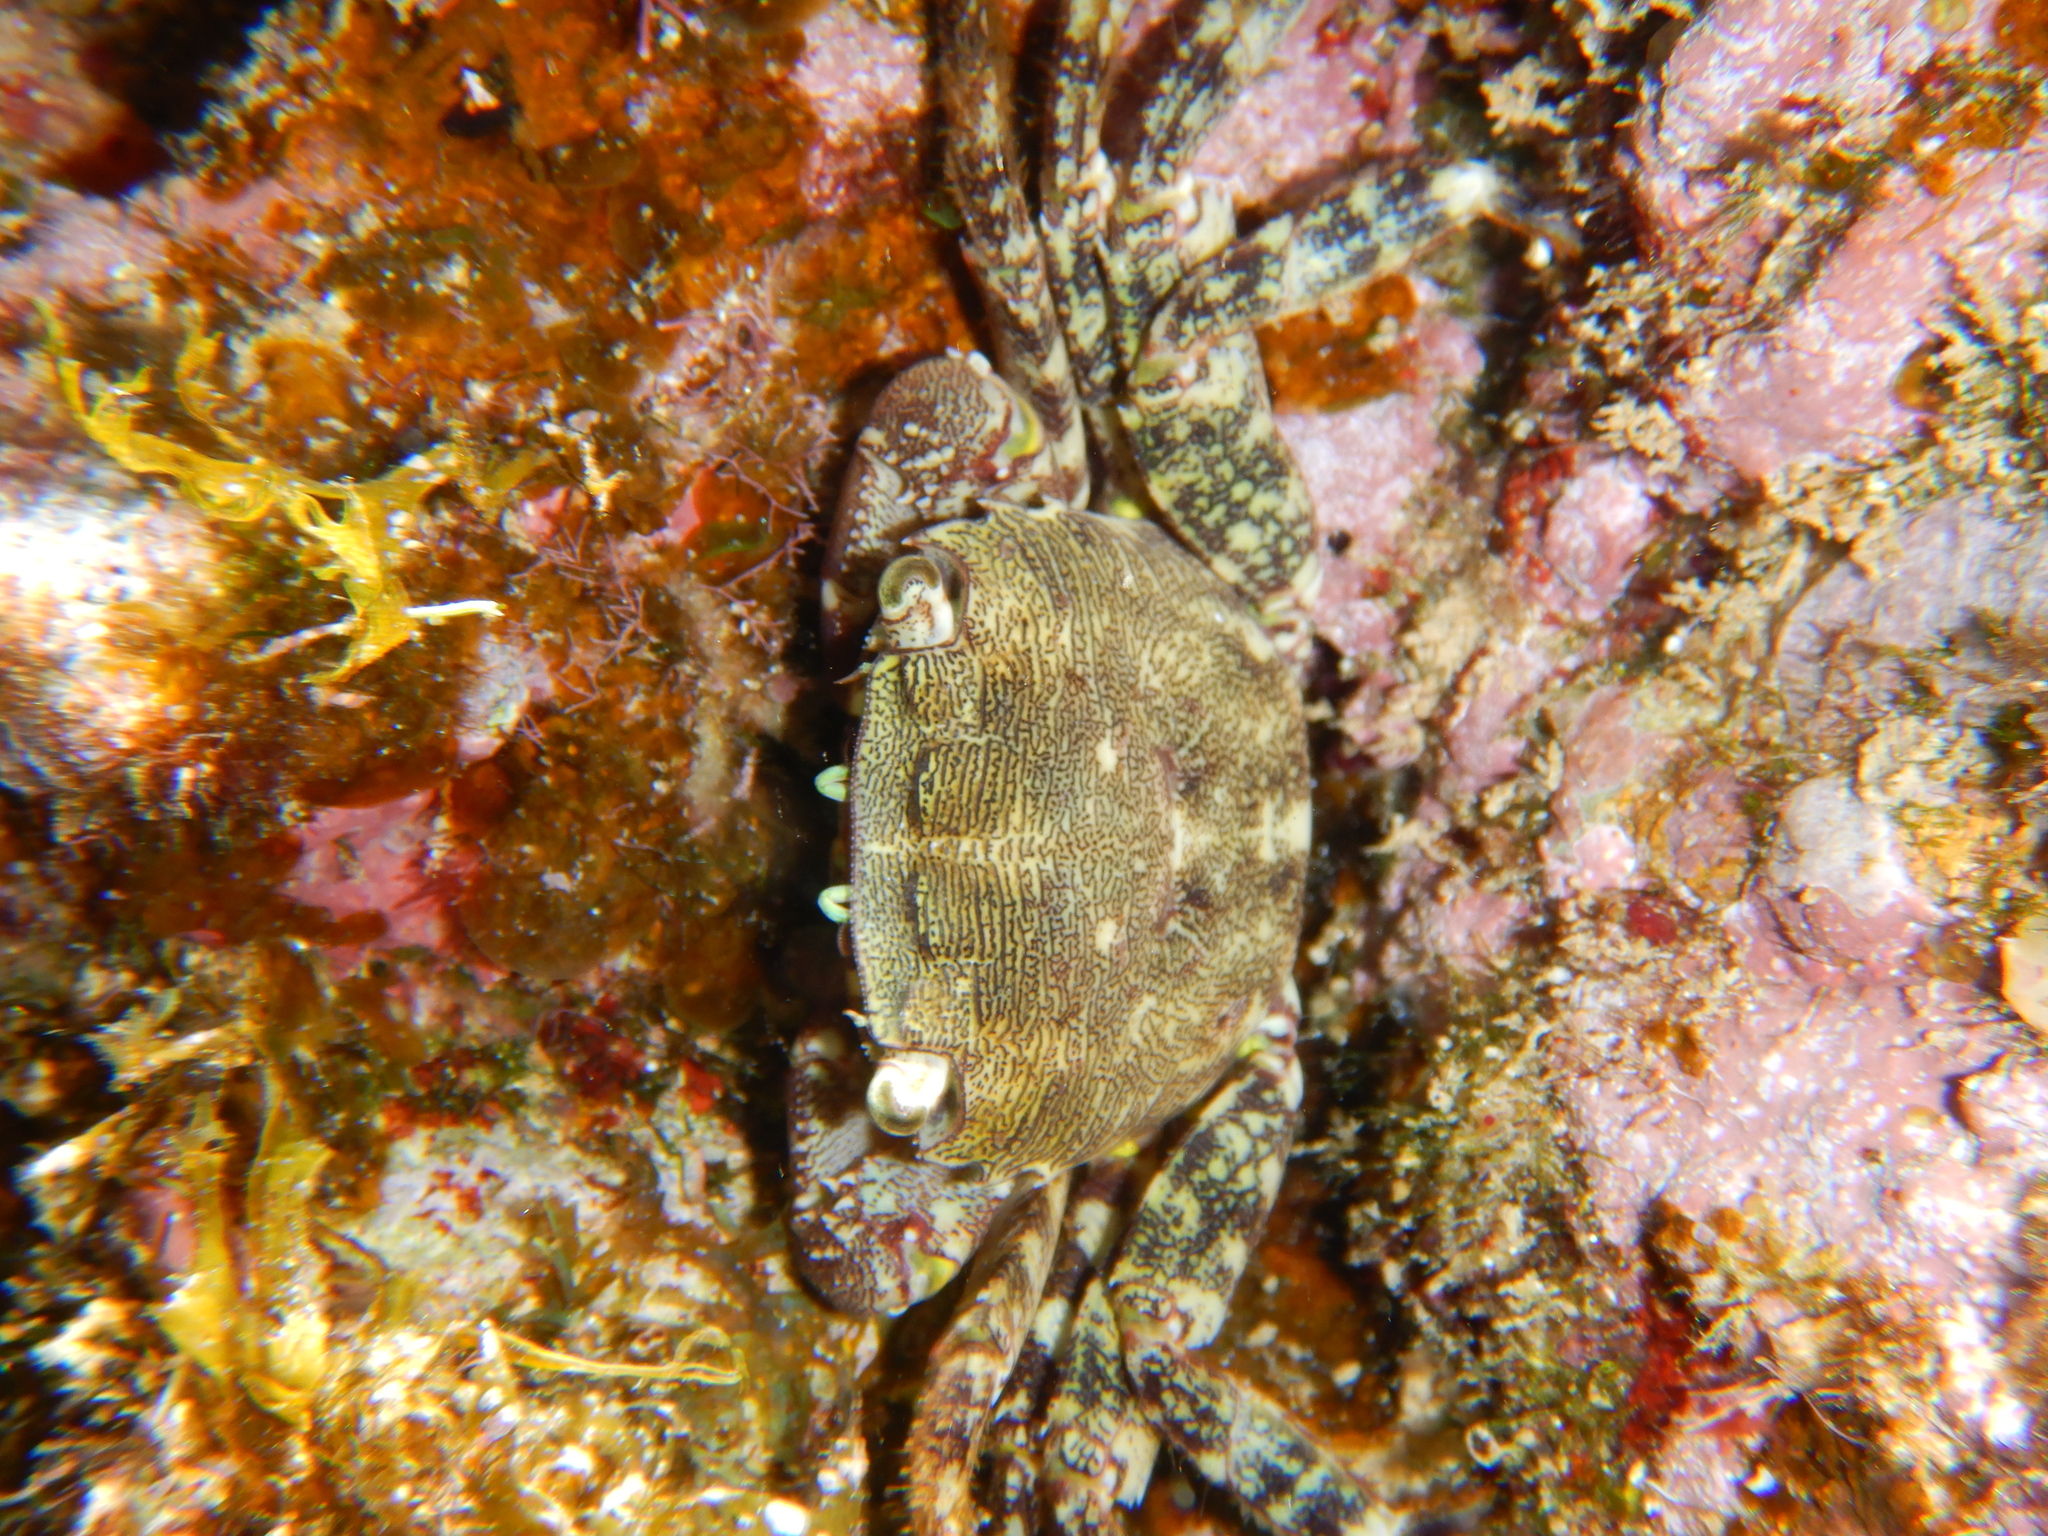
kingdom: Animalia
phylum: Arthropoda
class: Malacostraca
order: Decapoda
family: Grapsidae
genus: Pachygrapsus
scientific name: Pachygrapsus marmoratus
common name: Marbled rock crab
